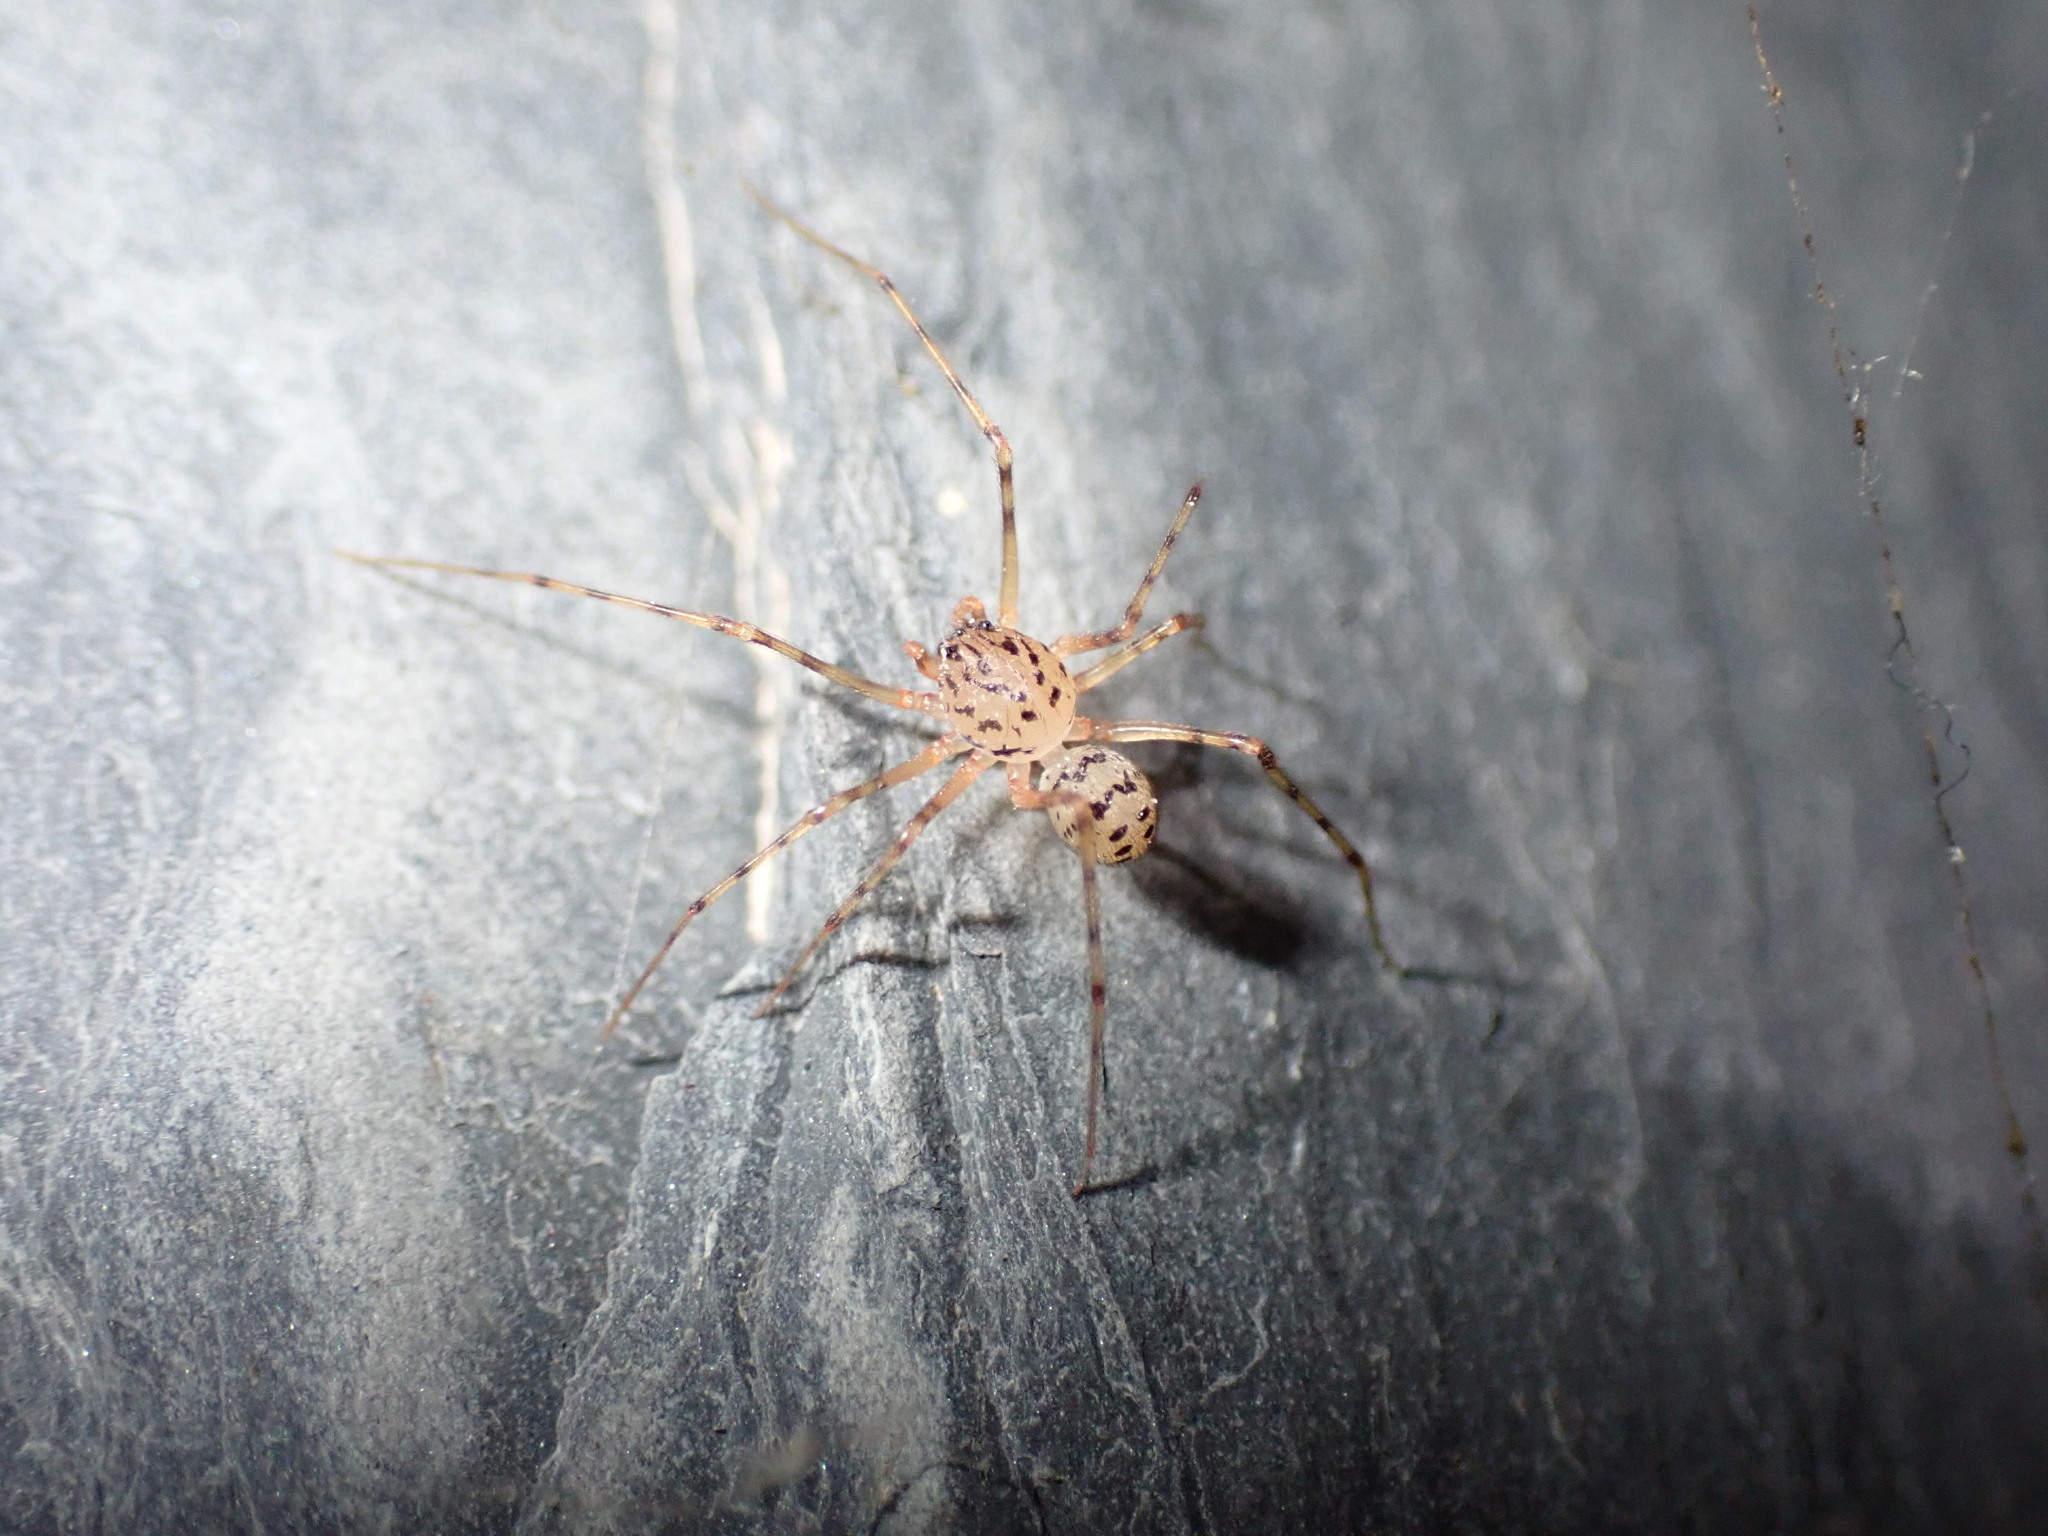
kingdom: Animalia
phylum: Arthropoda
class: Arachnida
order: Araneae
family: Scytodidae
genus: Scytodes
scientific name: Scytodes thoracica
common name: Spitting spider
